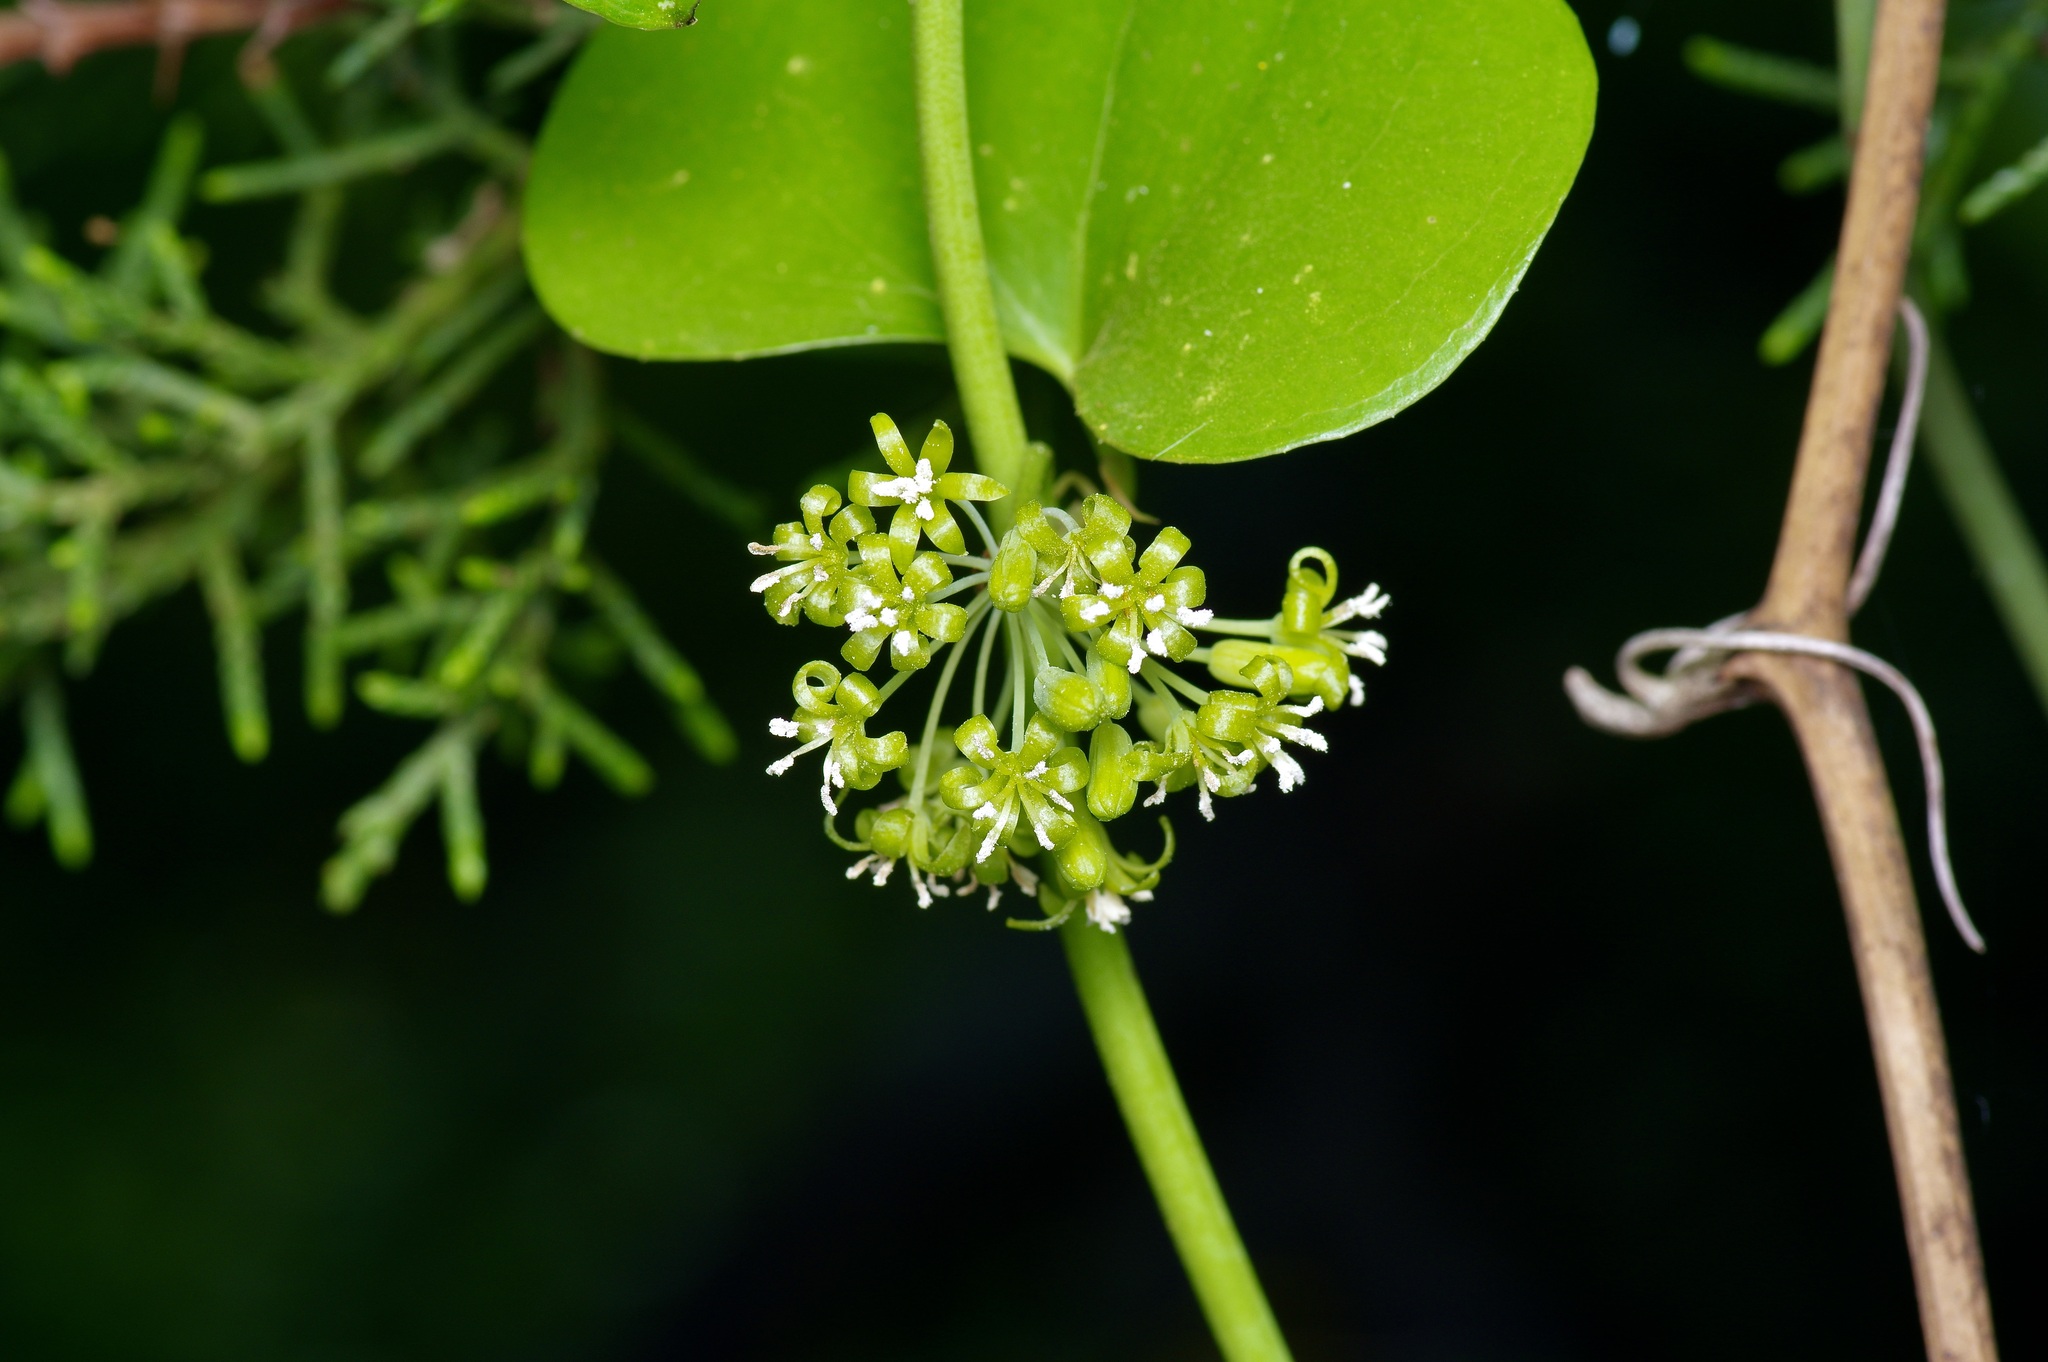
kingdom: Plantae
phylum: Tracheophyta
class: Liliopsida
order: Liliales
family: Smilacaceae
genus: Smilax
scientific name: Smilax bona-nox
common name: Catbrier
